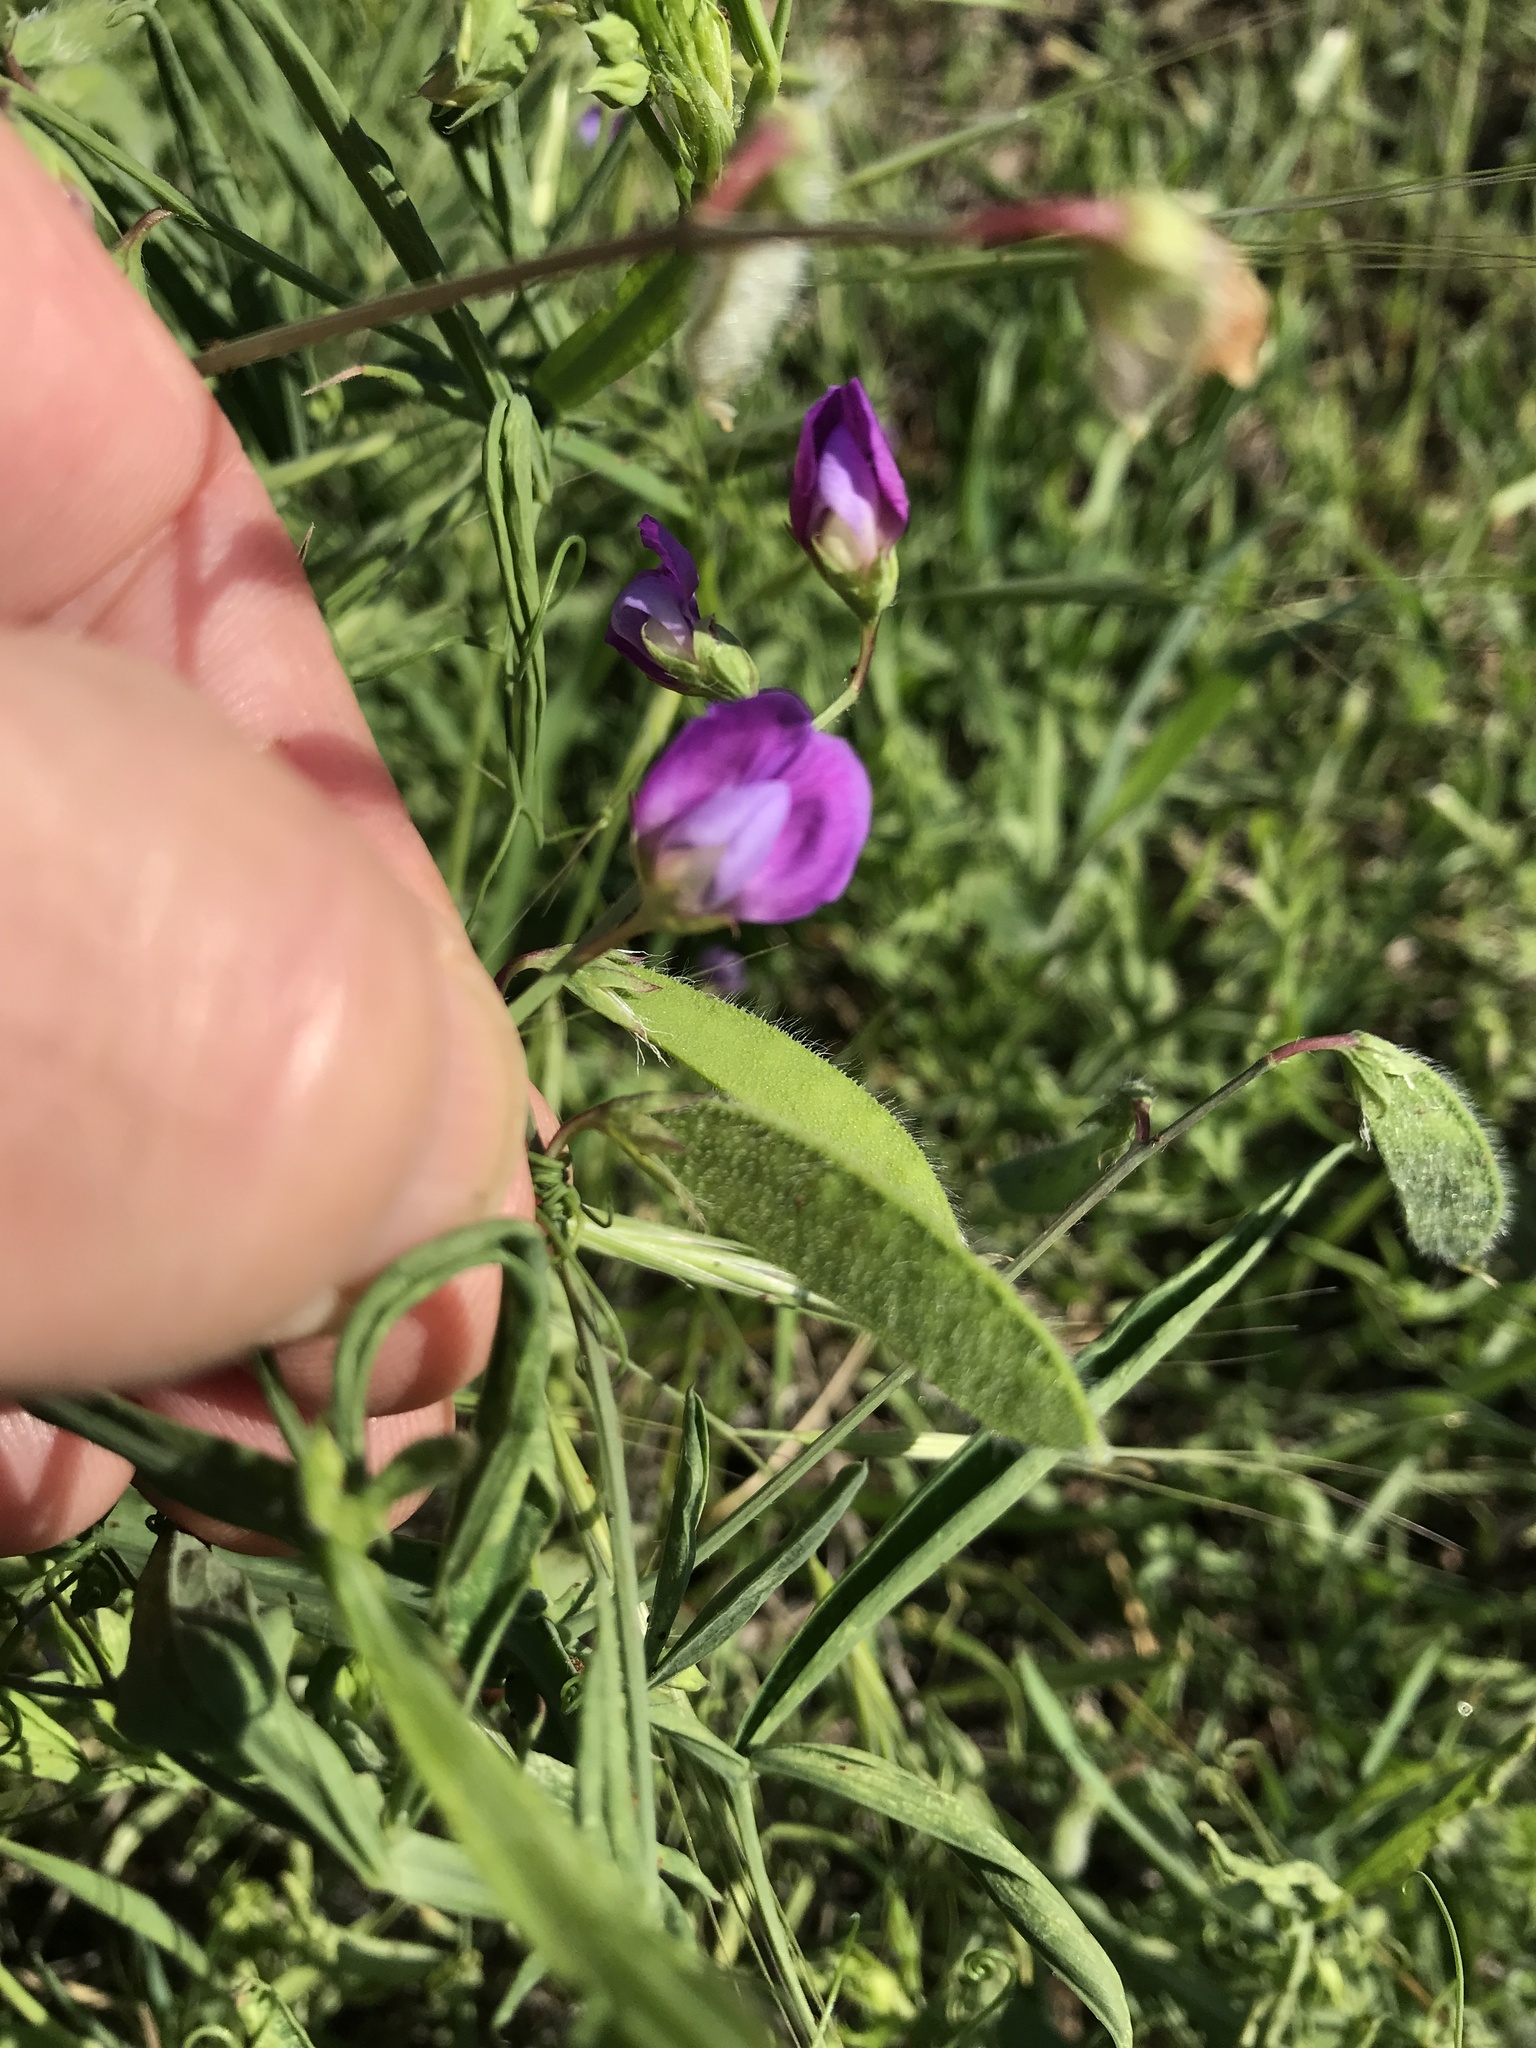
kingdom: Plantae
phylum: Tracheophyta
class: Magnoliopsida
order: Fabales
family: Fabaceae
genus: Lathyrus
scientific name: Lathyrus hirsutus
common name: Hairy vetchling
